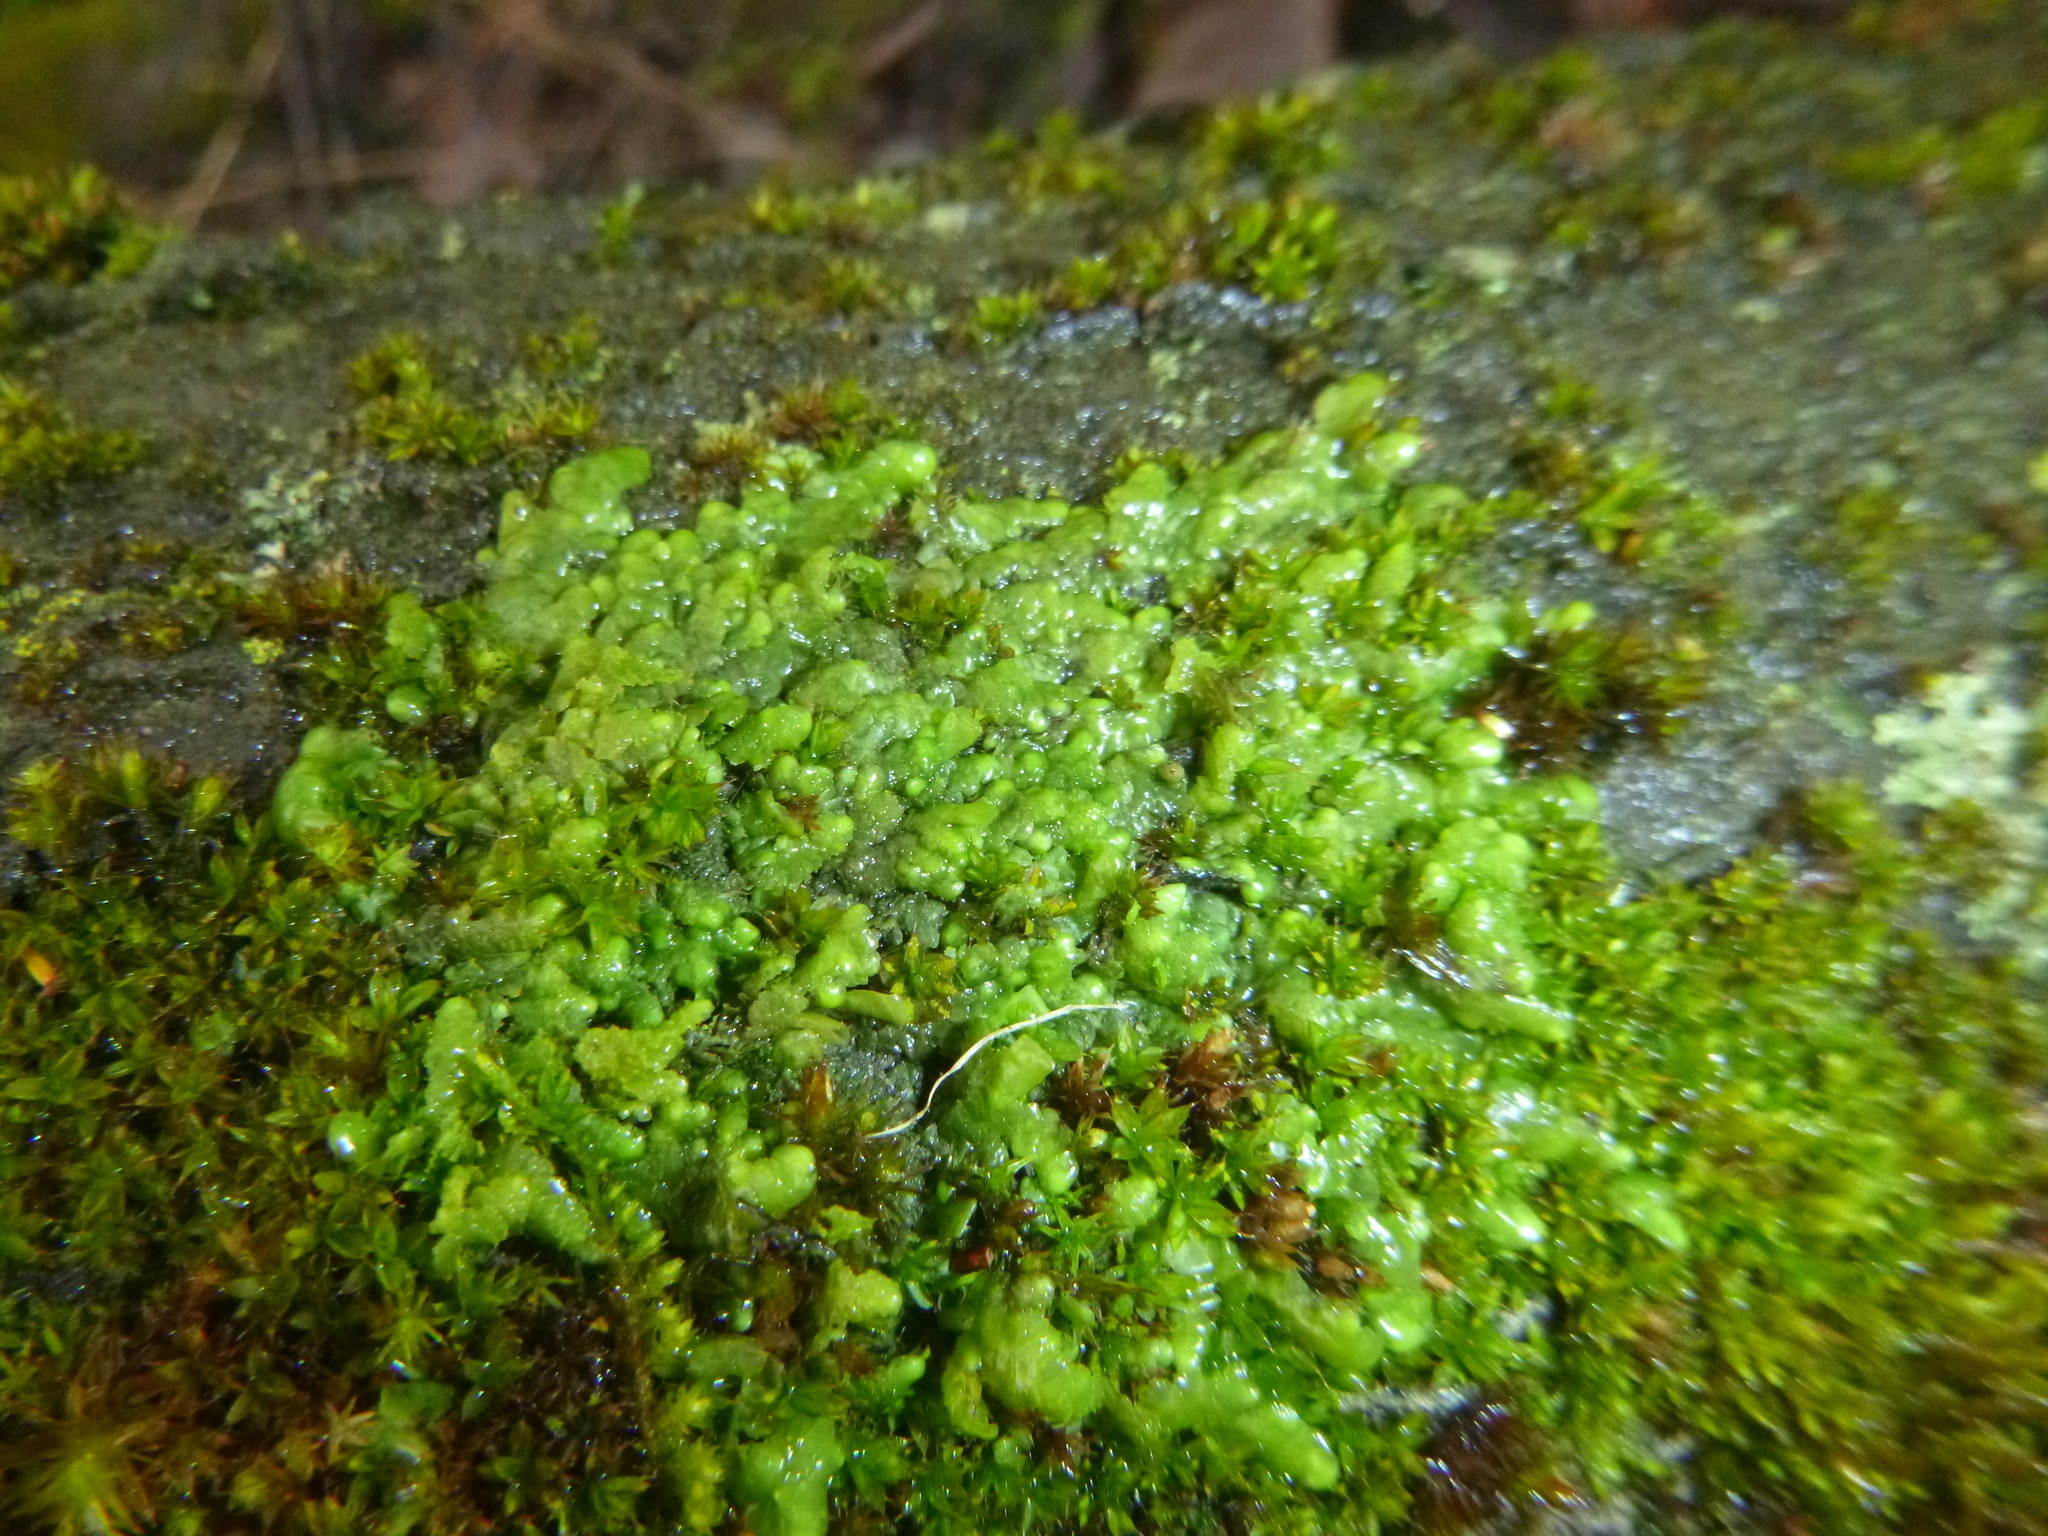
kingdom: Plantae
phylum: Marchantiophyta
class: Jungermanniopsida
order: Porellales
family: Radulaceae
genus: Radula
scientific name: Radula complanata
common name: Flat-leaved scalewort
